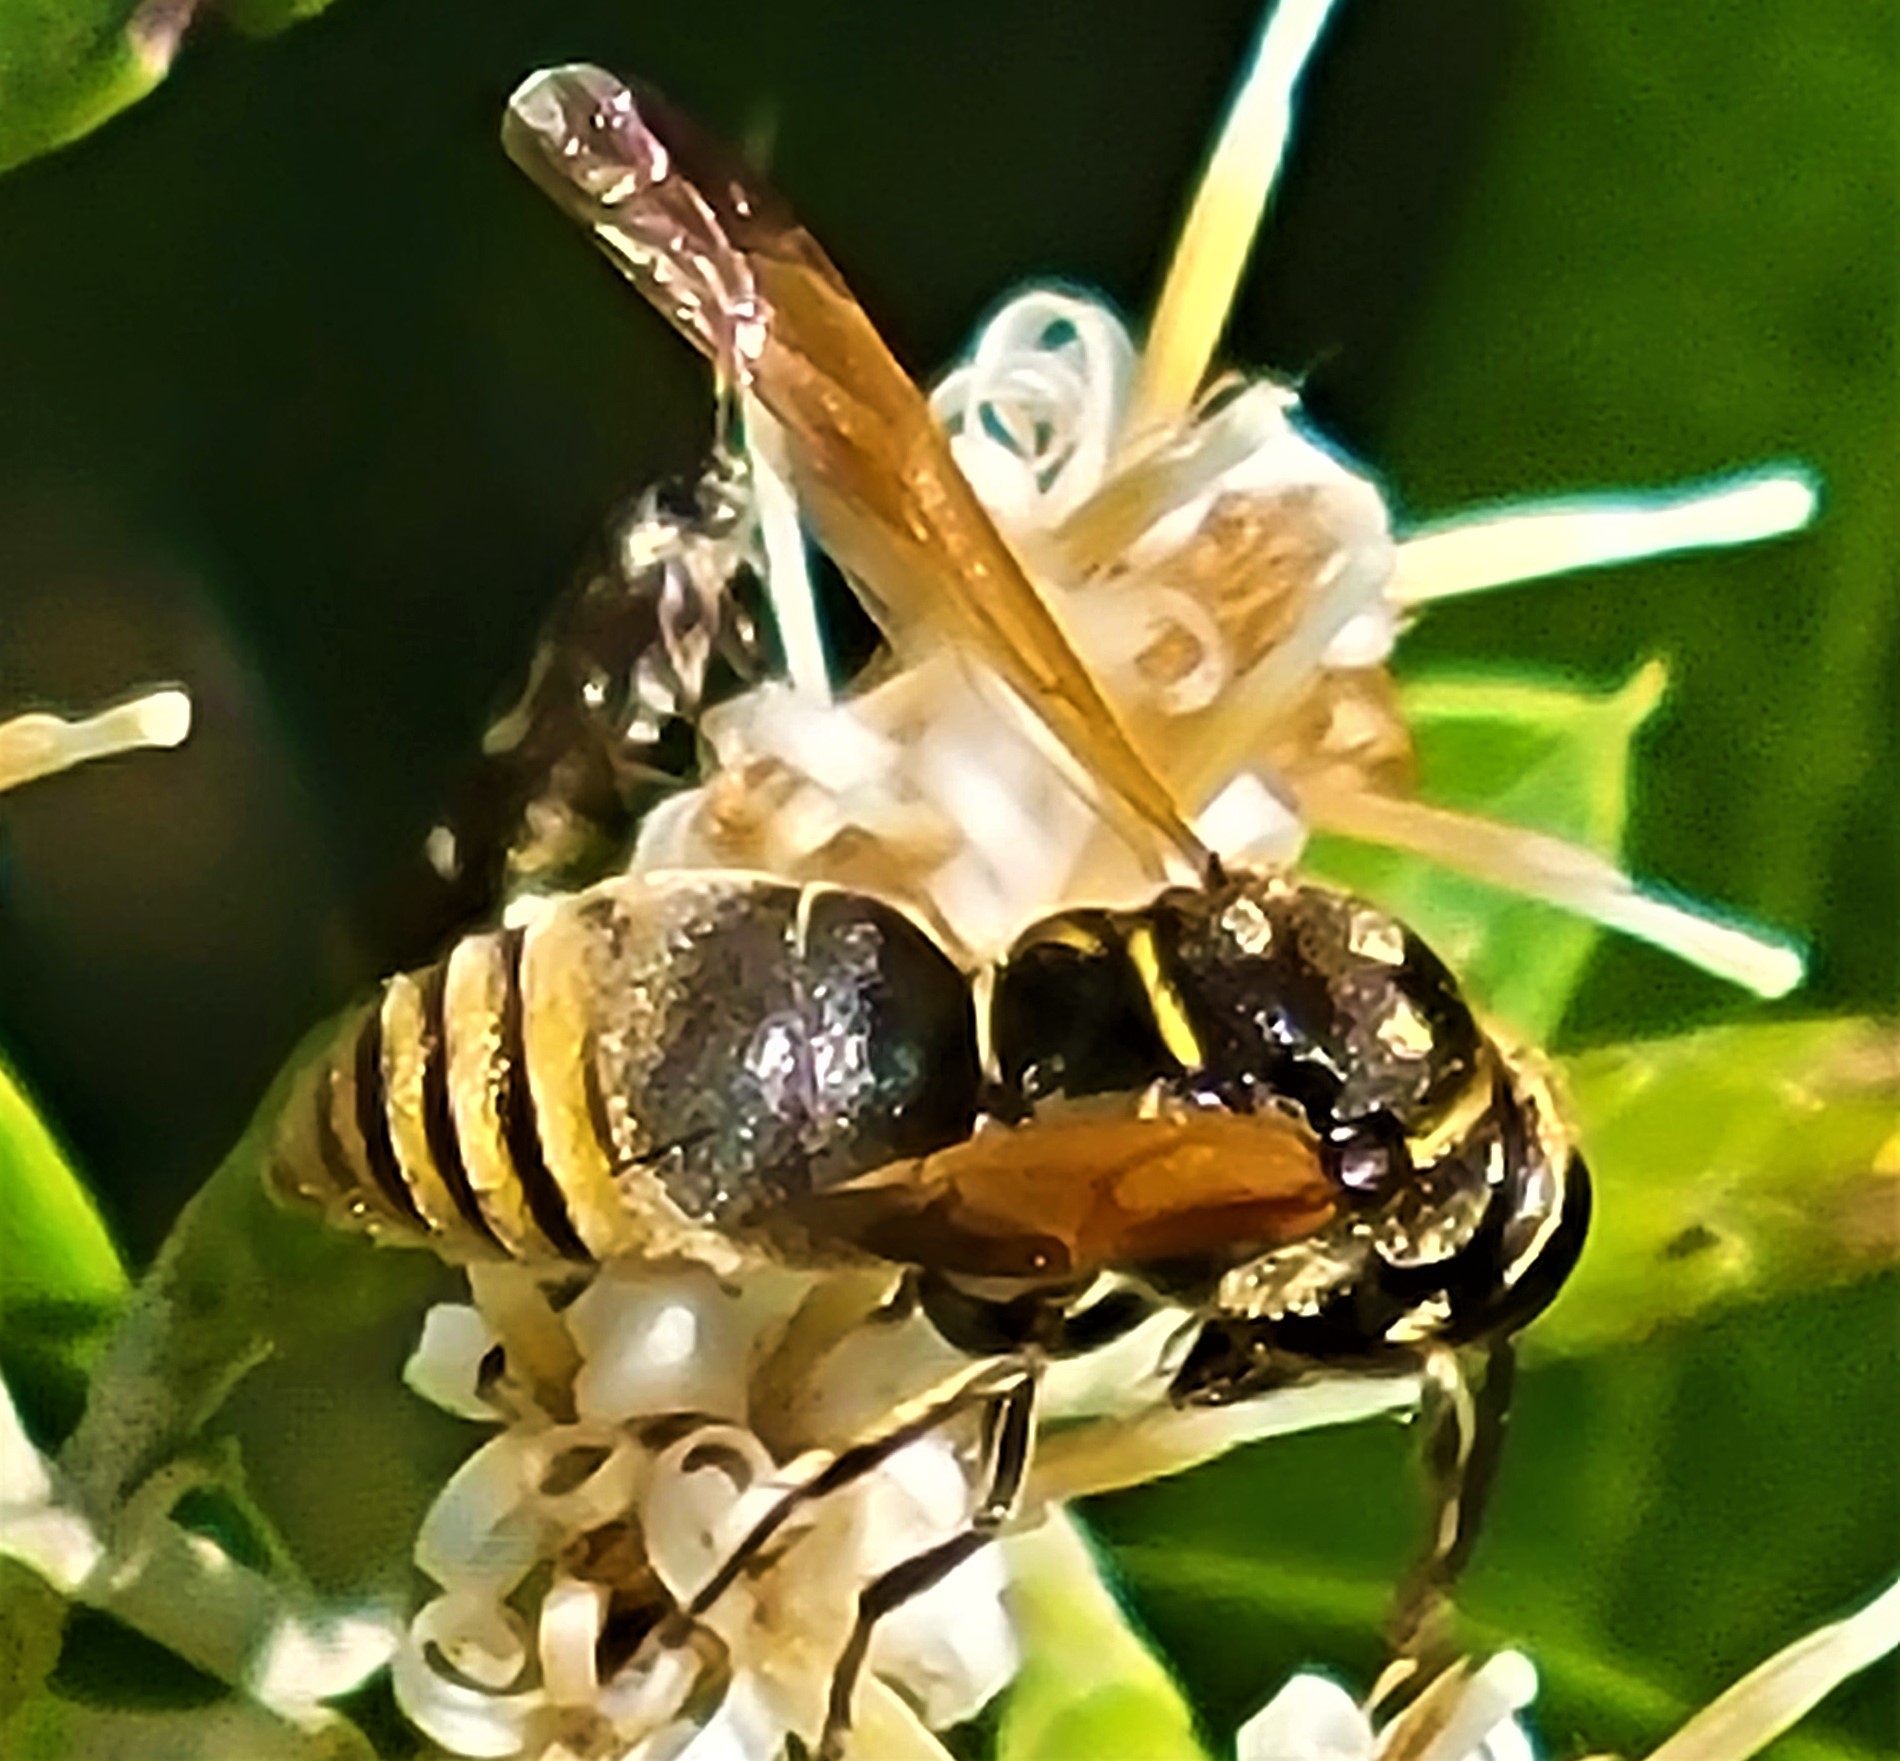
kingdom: Animalia
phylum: Arthropoda
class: Insecta
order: Hymenoptera
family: Eumenidae
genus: Pachodynerus
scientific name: Pachodynerus nasidens
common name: Key hole wasp
